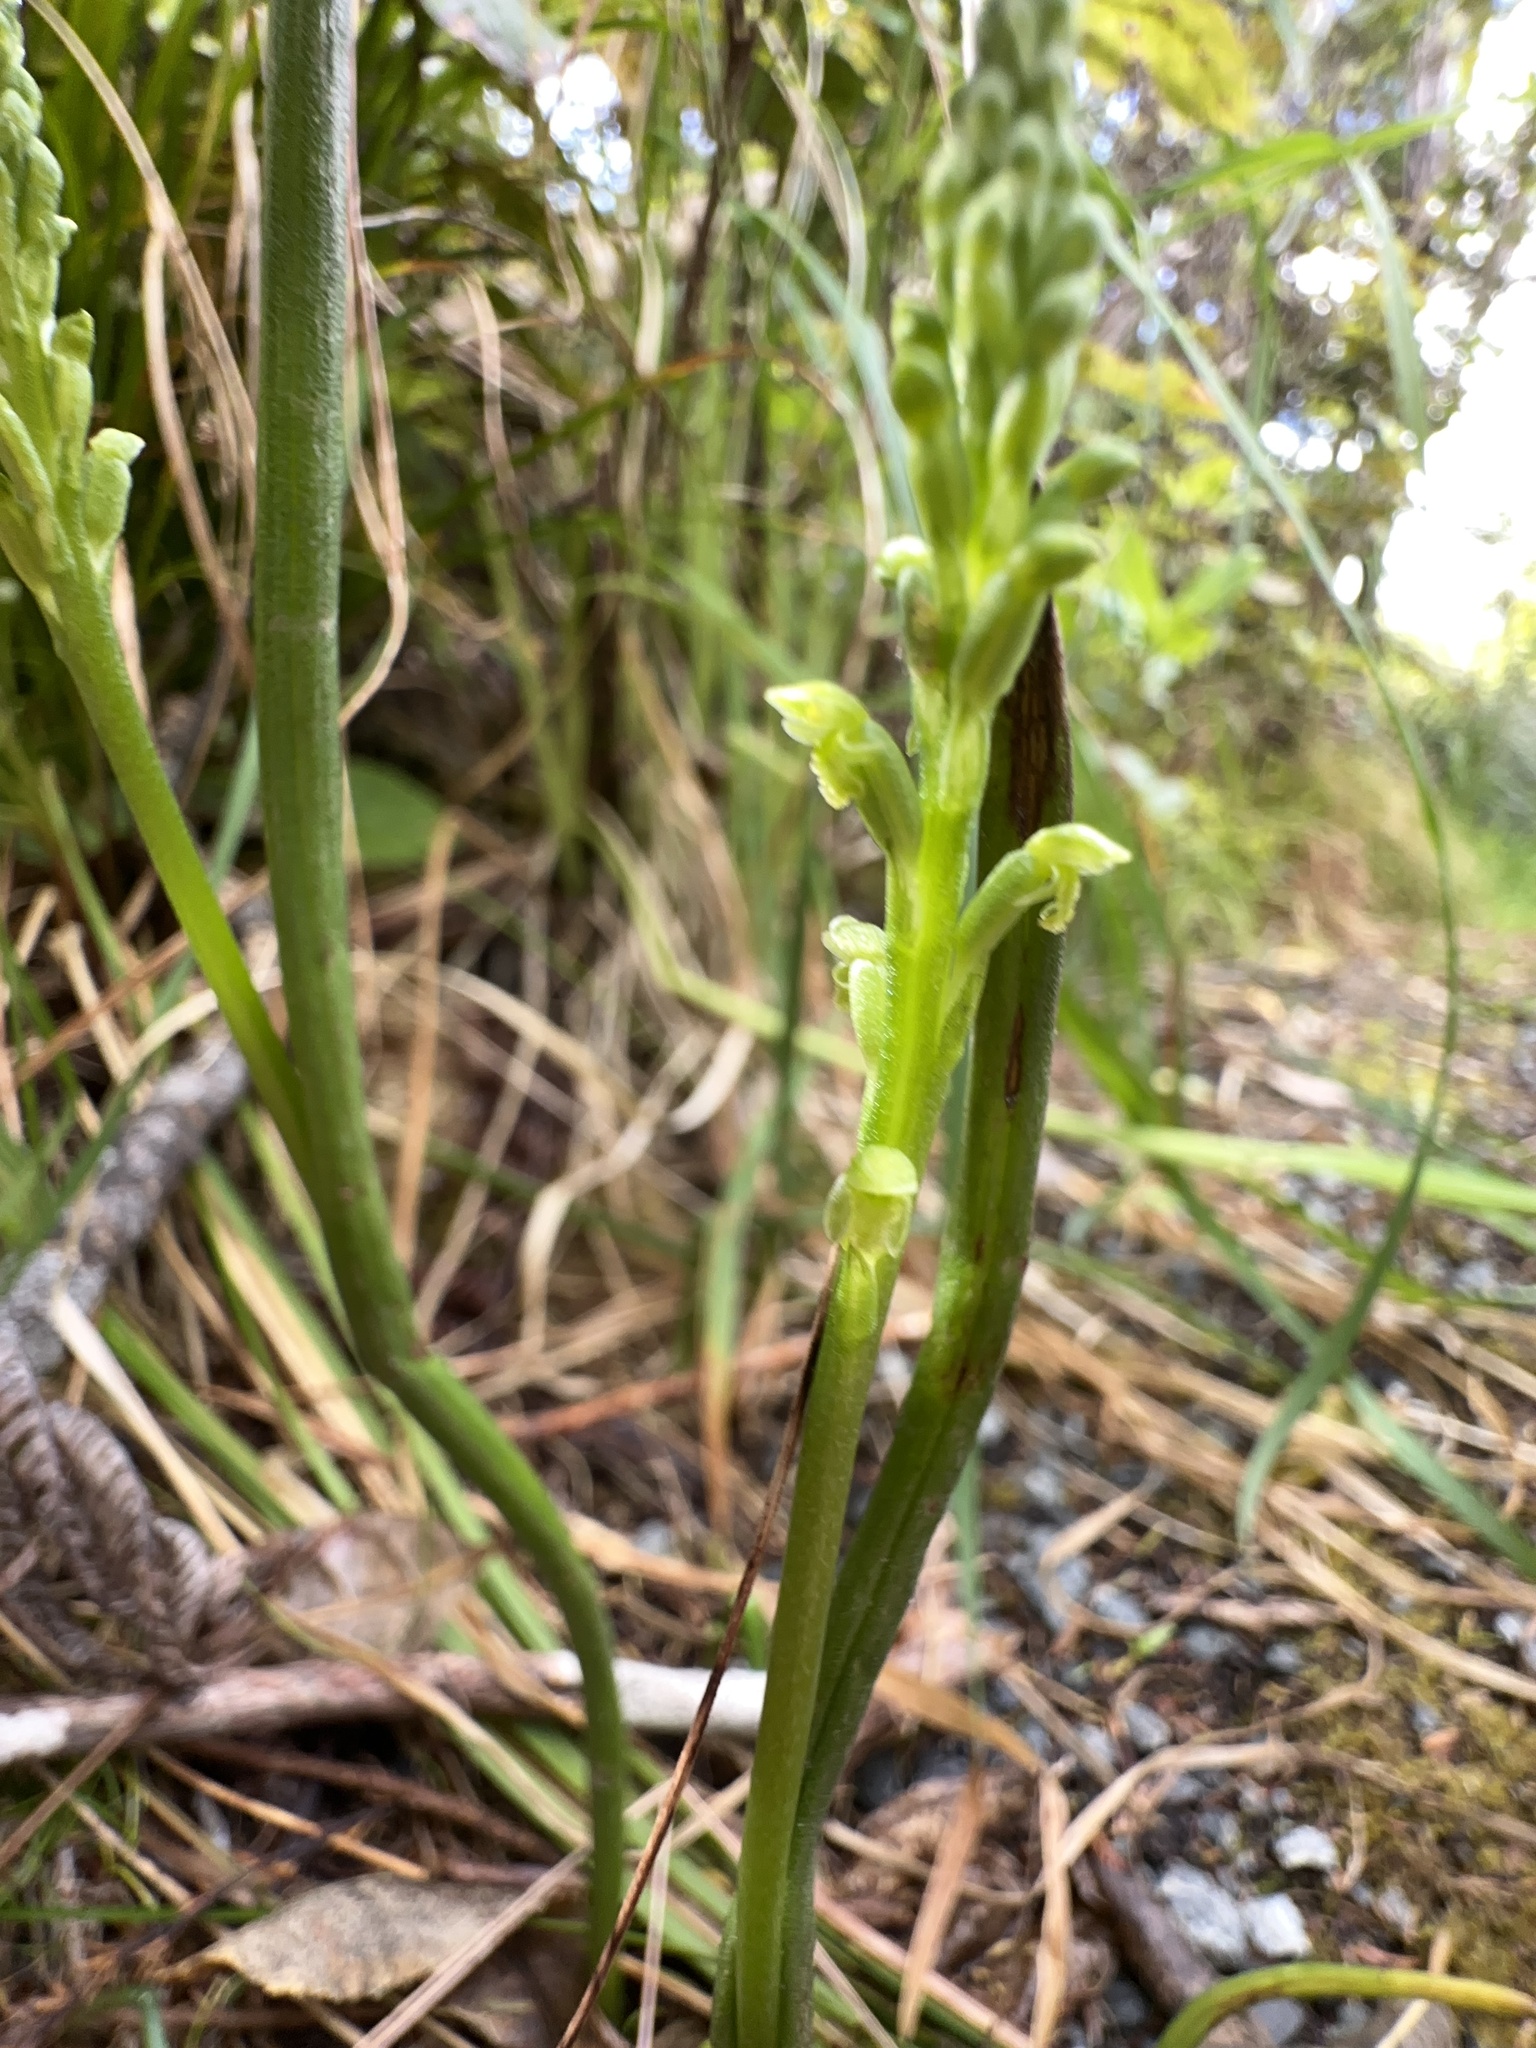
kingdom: Plantae
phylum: Tracheophyta
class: Liliopsida
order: Asparagales
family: Orchidaceae
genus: Microtis
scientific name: Microtis unifolia
